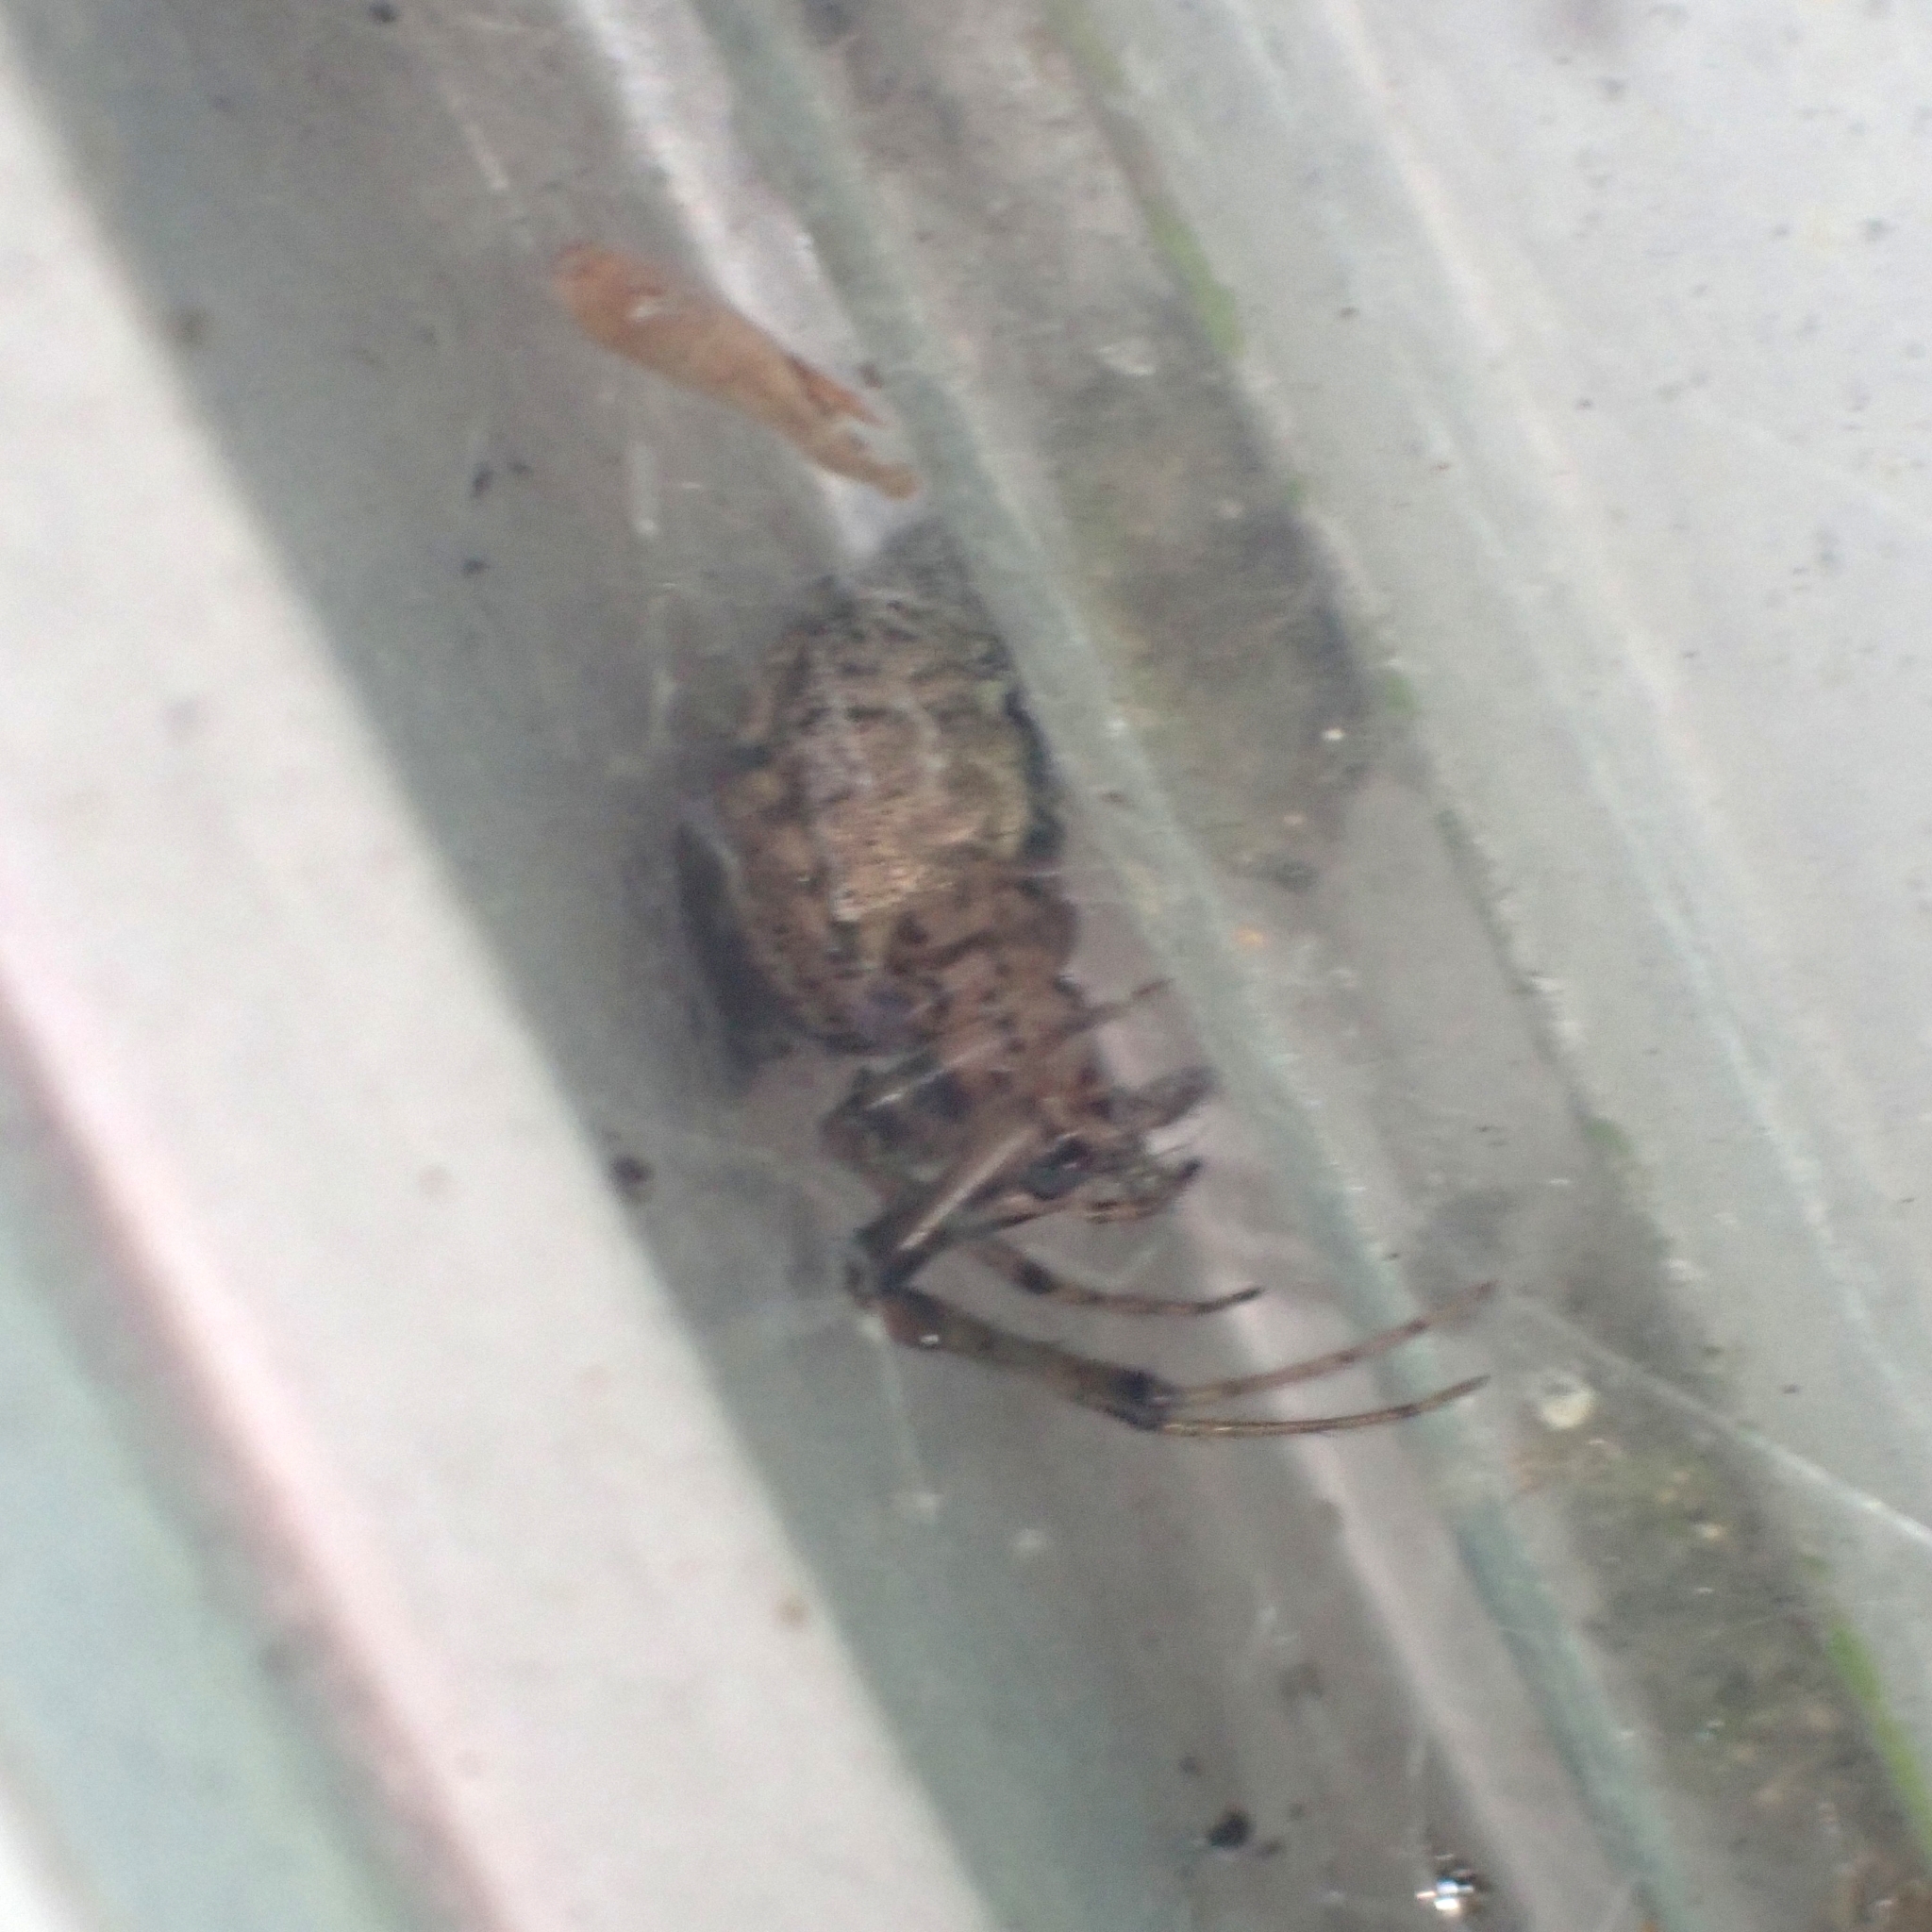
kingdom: Animalia
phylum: Arthropoda
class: Arachnida
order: Araneae
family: Araneidae
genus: Zygiella
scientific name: Zygiella x-notata
